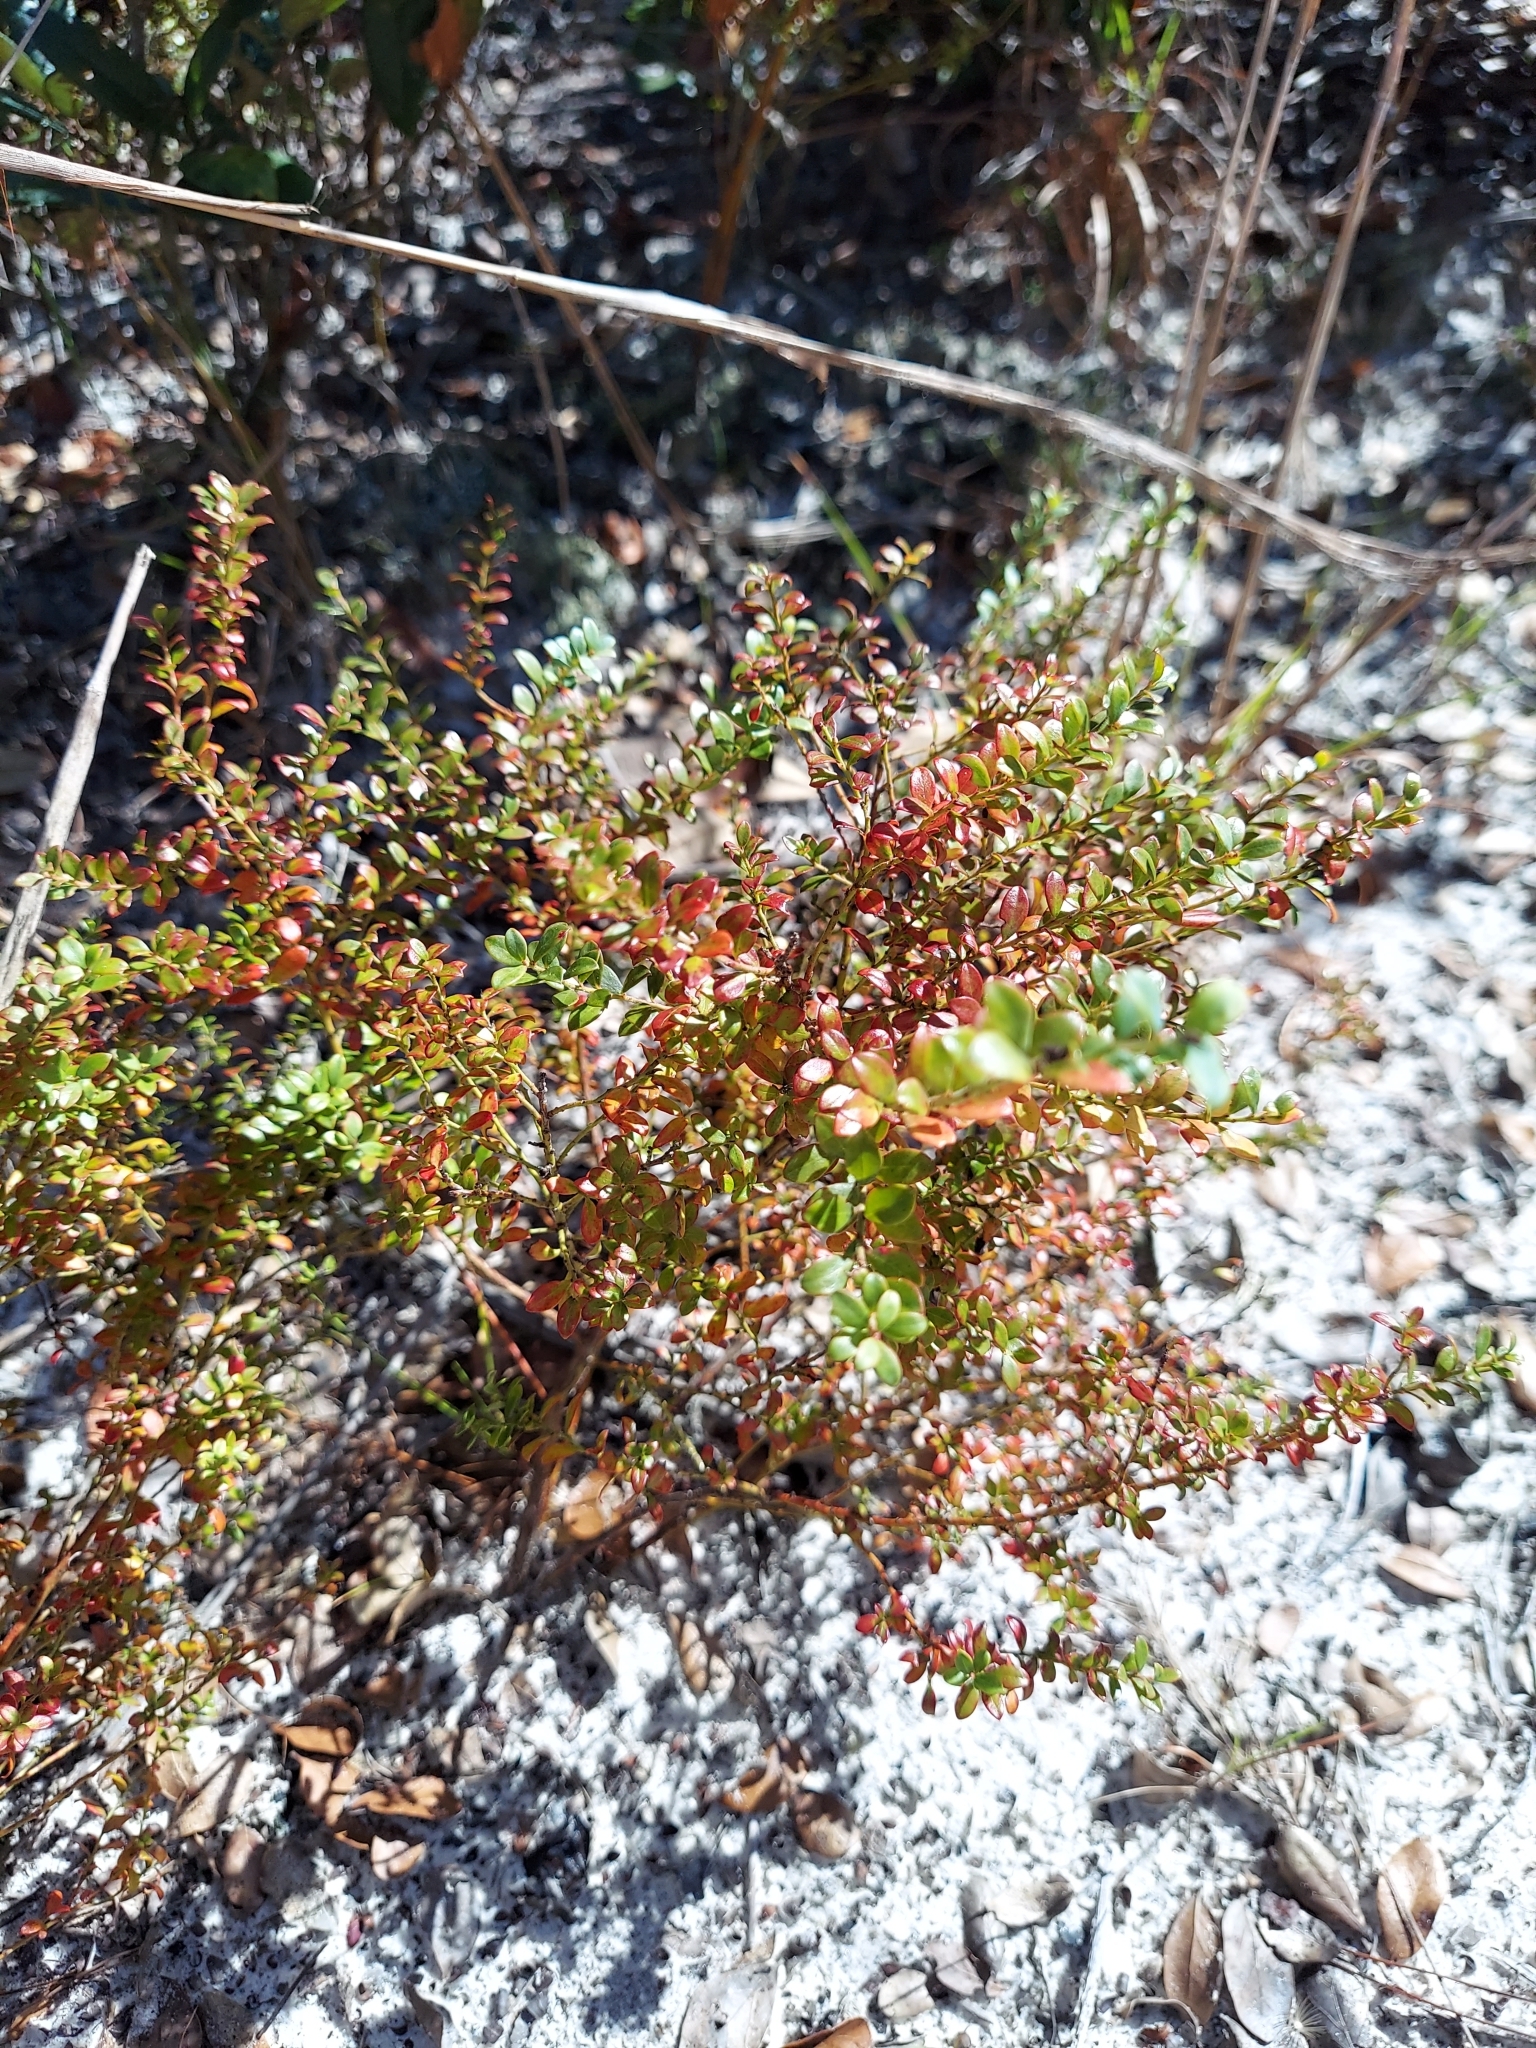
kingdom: Plantae
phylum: Tracheophyta
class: Magnoliopsida
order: Ericales
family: Ericaceae
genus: Vaccinium
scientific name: Vaccinium myrsinites
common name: Evergreen blueberry
